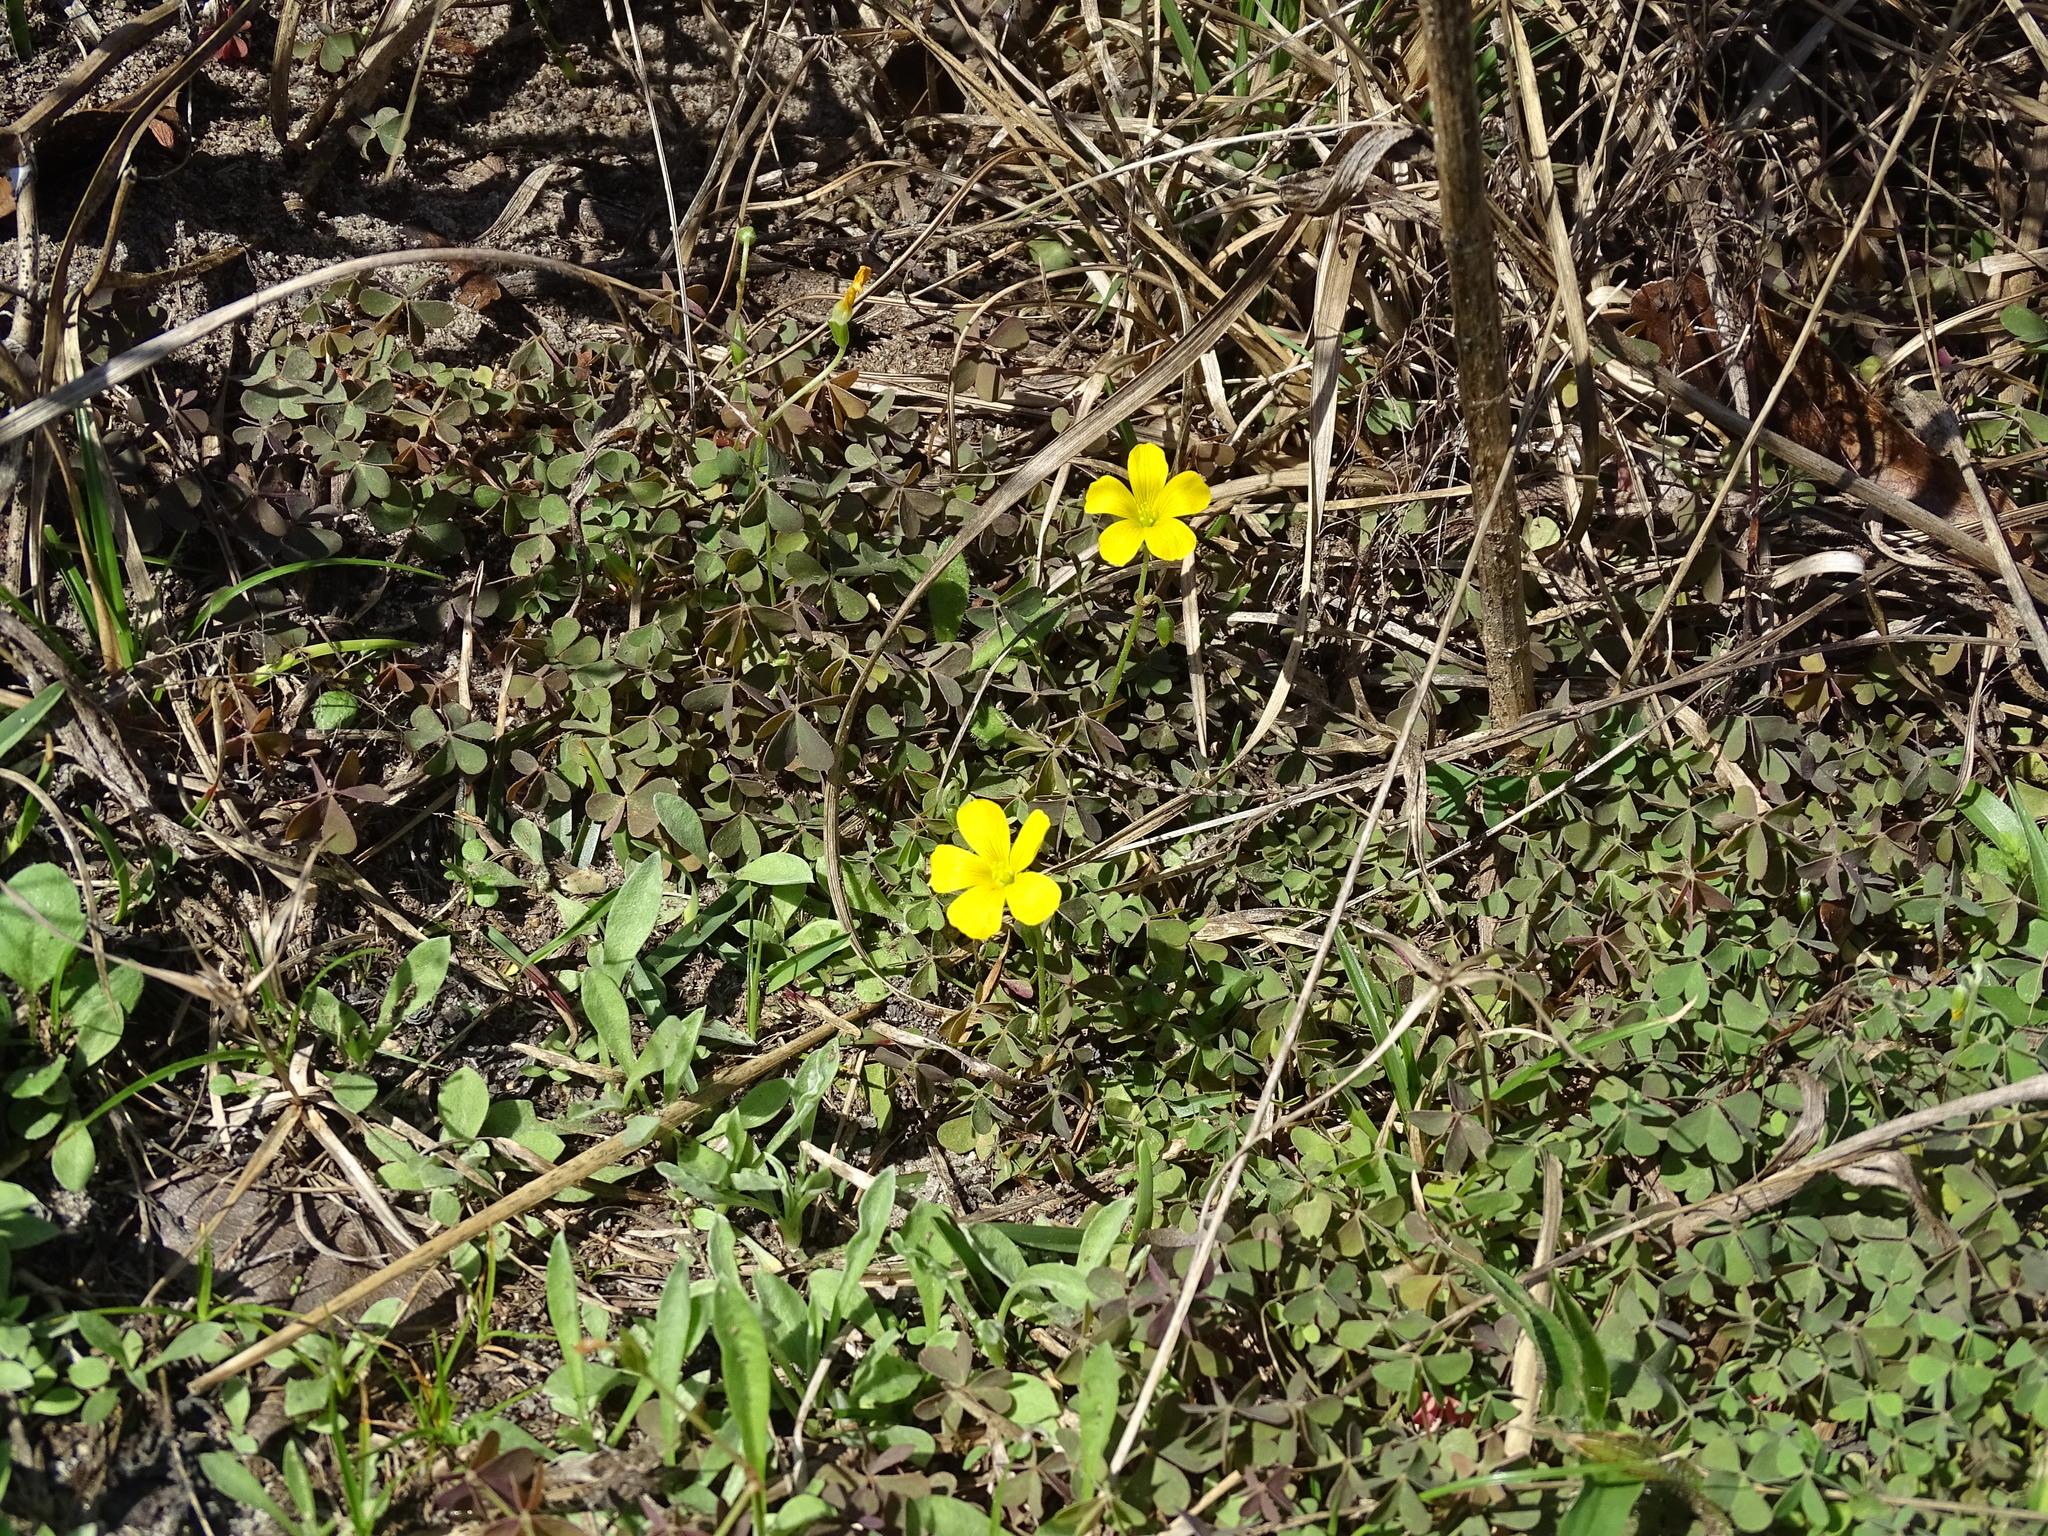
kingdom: Plantae
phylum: Tracheophyta
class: Magnoliopsida
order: Oxalidales
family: Oxalidaceae
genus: Oxalis
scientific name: Oxalis corniculata
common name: Procumbent yellow-sorrel
